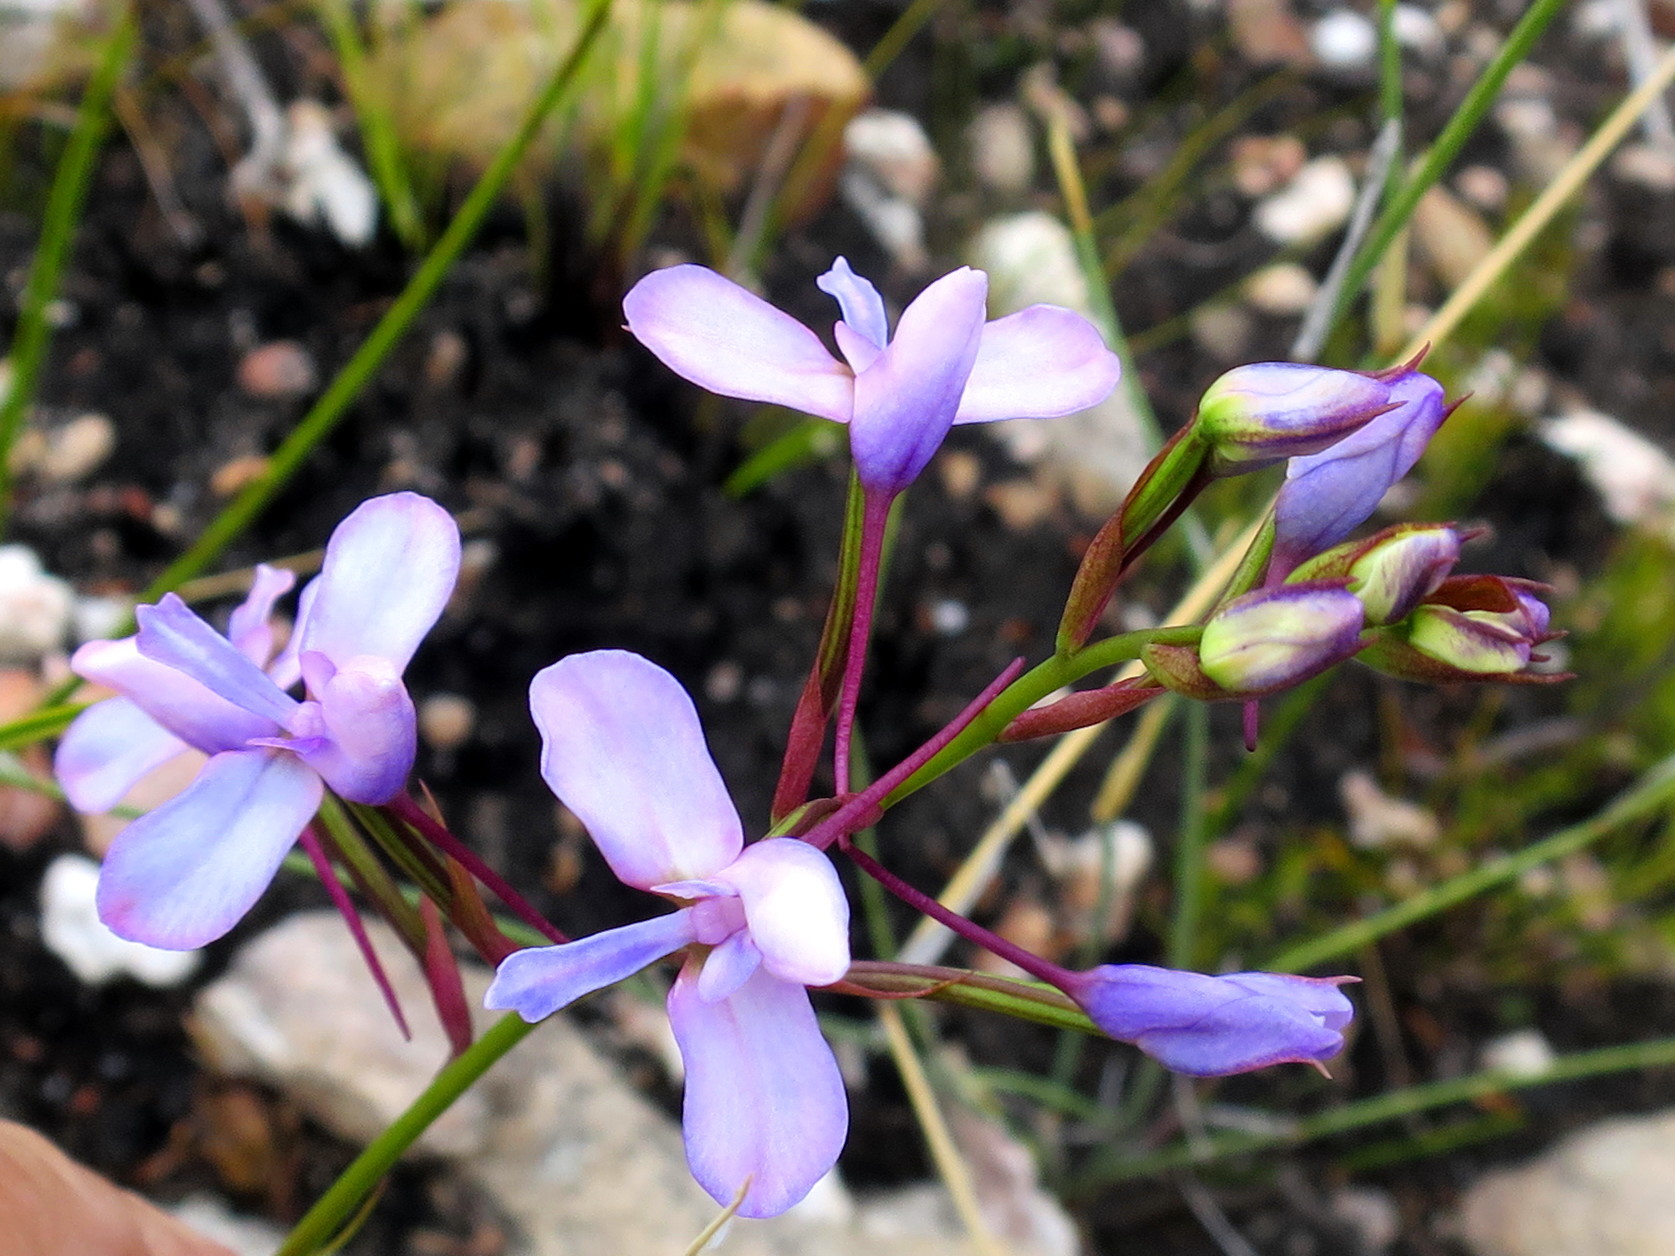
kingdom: Plantae
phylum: Tracheophyta
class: Liliopsida
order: Asparagales
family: Orchidaceae
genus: Disa
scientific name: Disa arida
